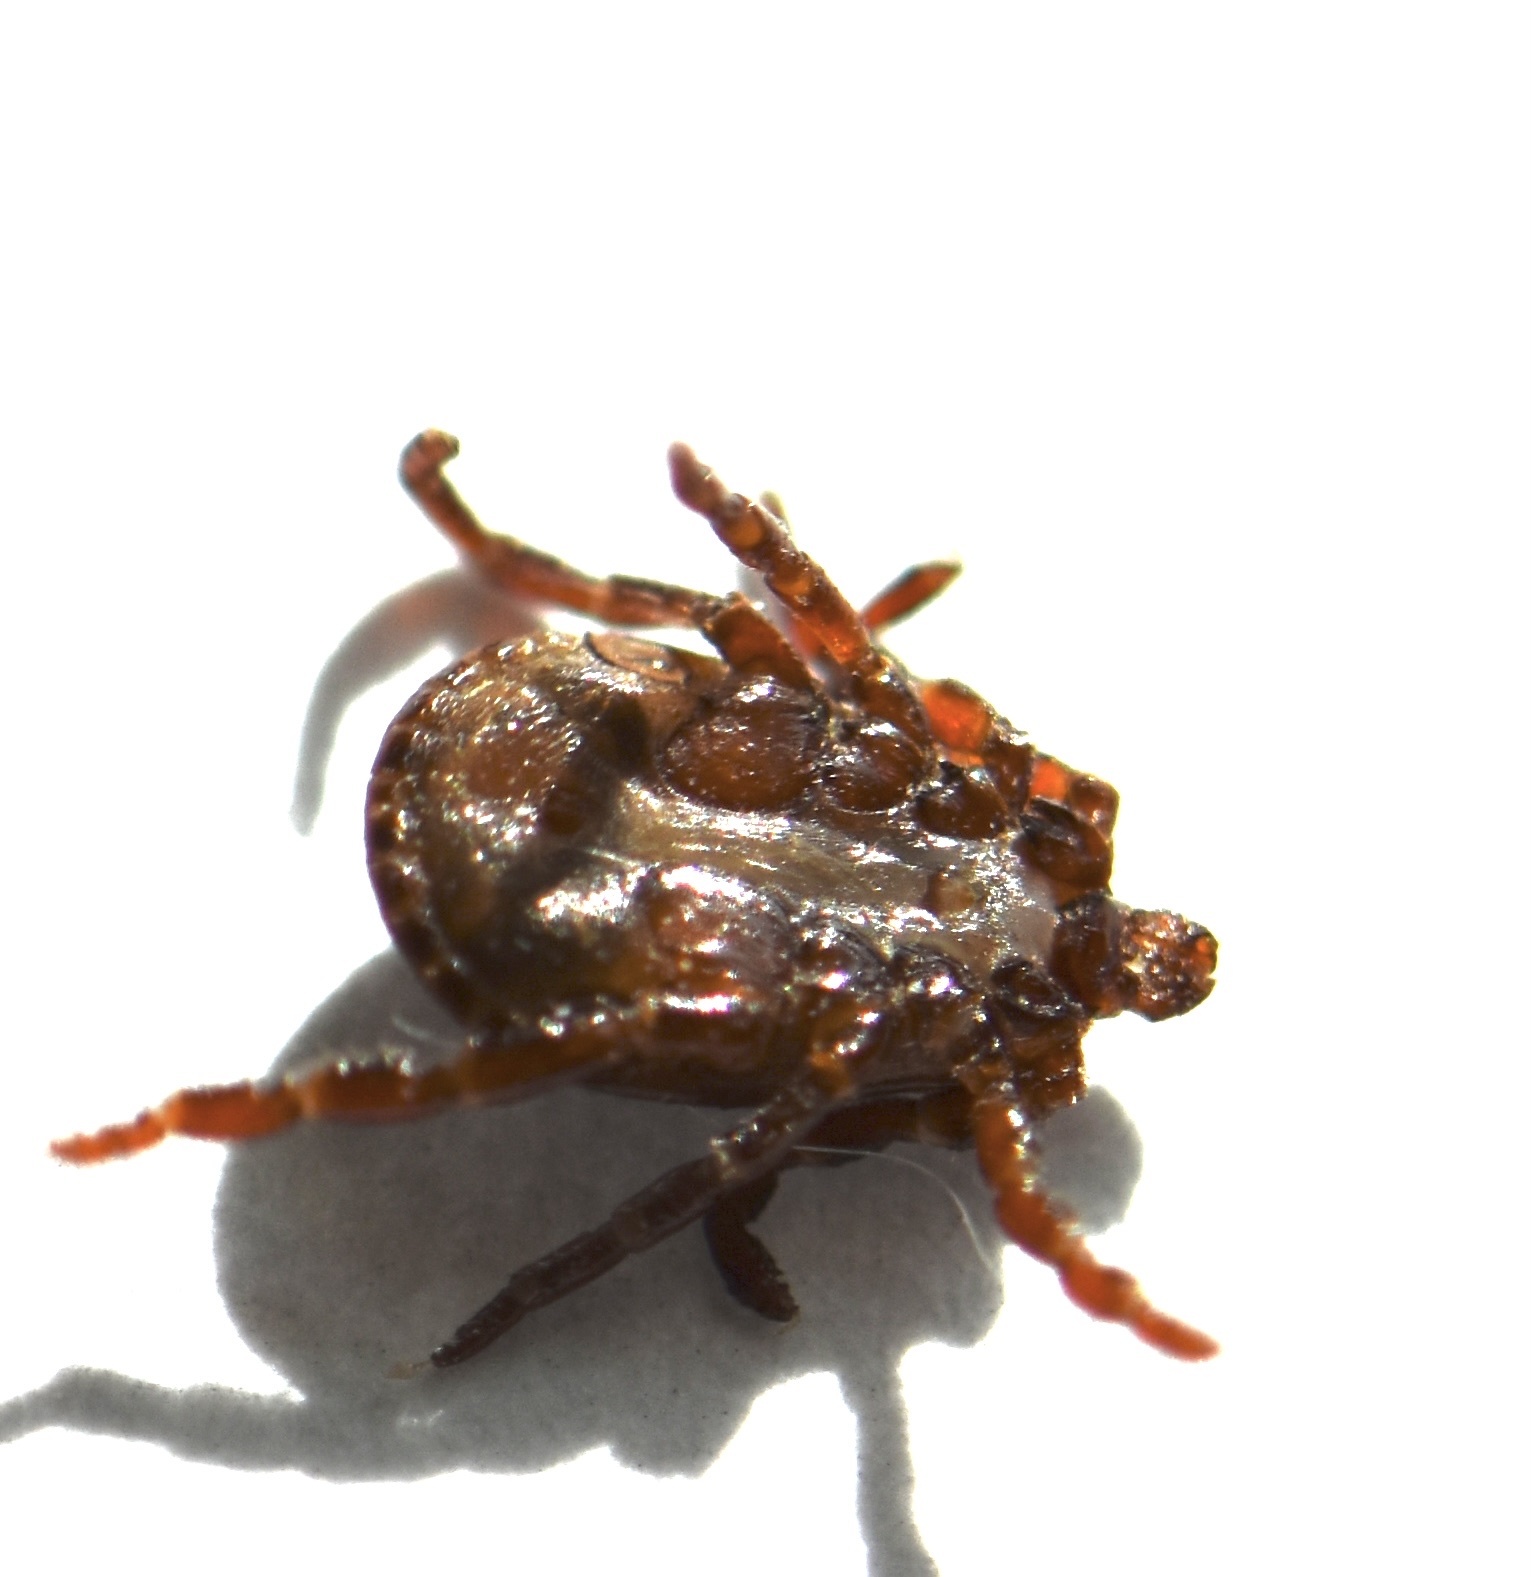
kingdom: Animalia
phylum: Arthropoda
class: Arachnida
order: Ixodida
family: Ixodidae
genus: Dermacentor
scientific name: Dermacentor variabilis
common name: American dog tick
